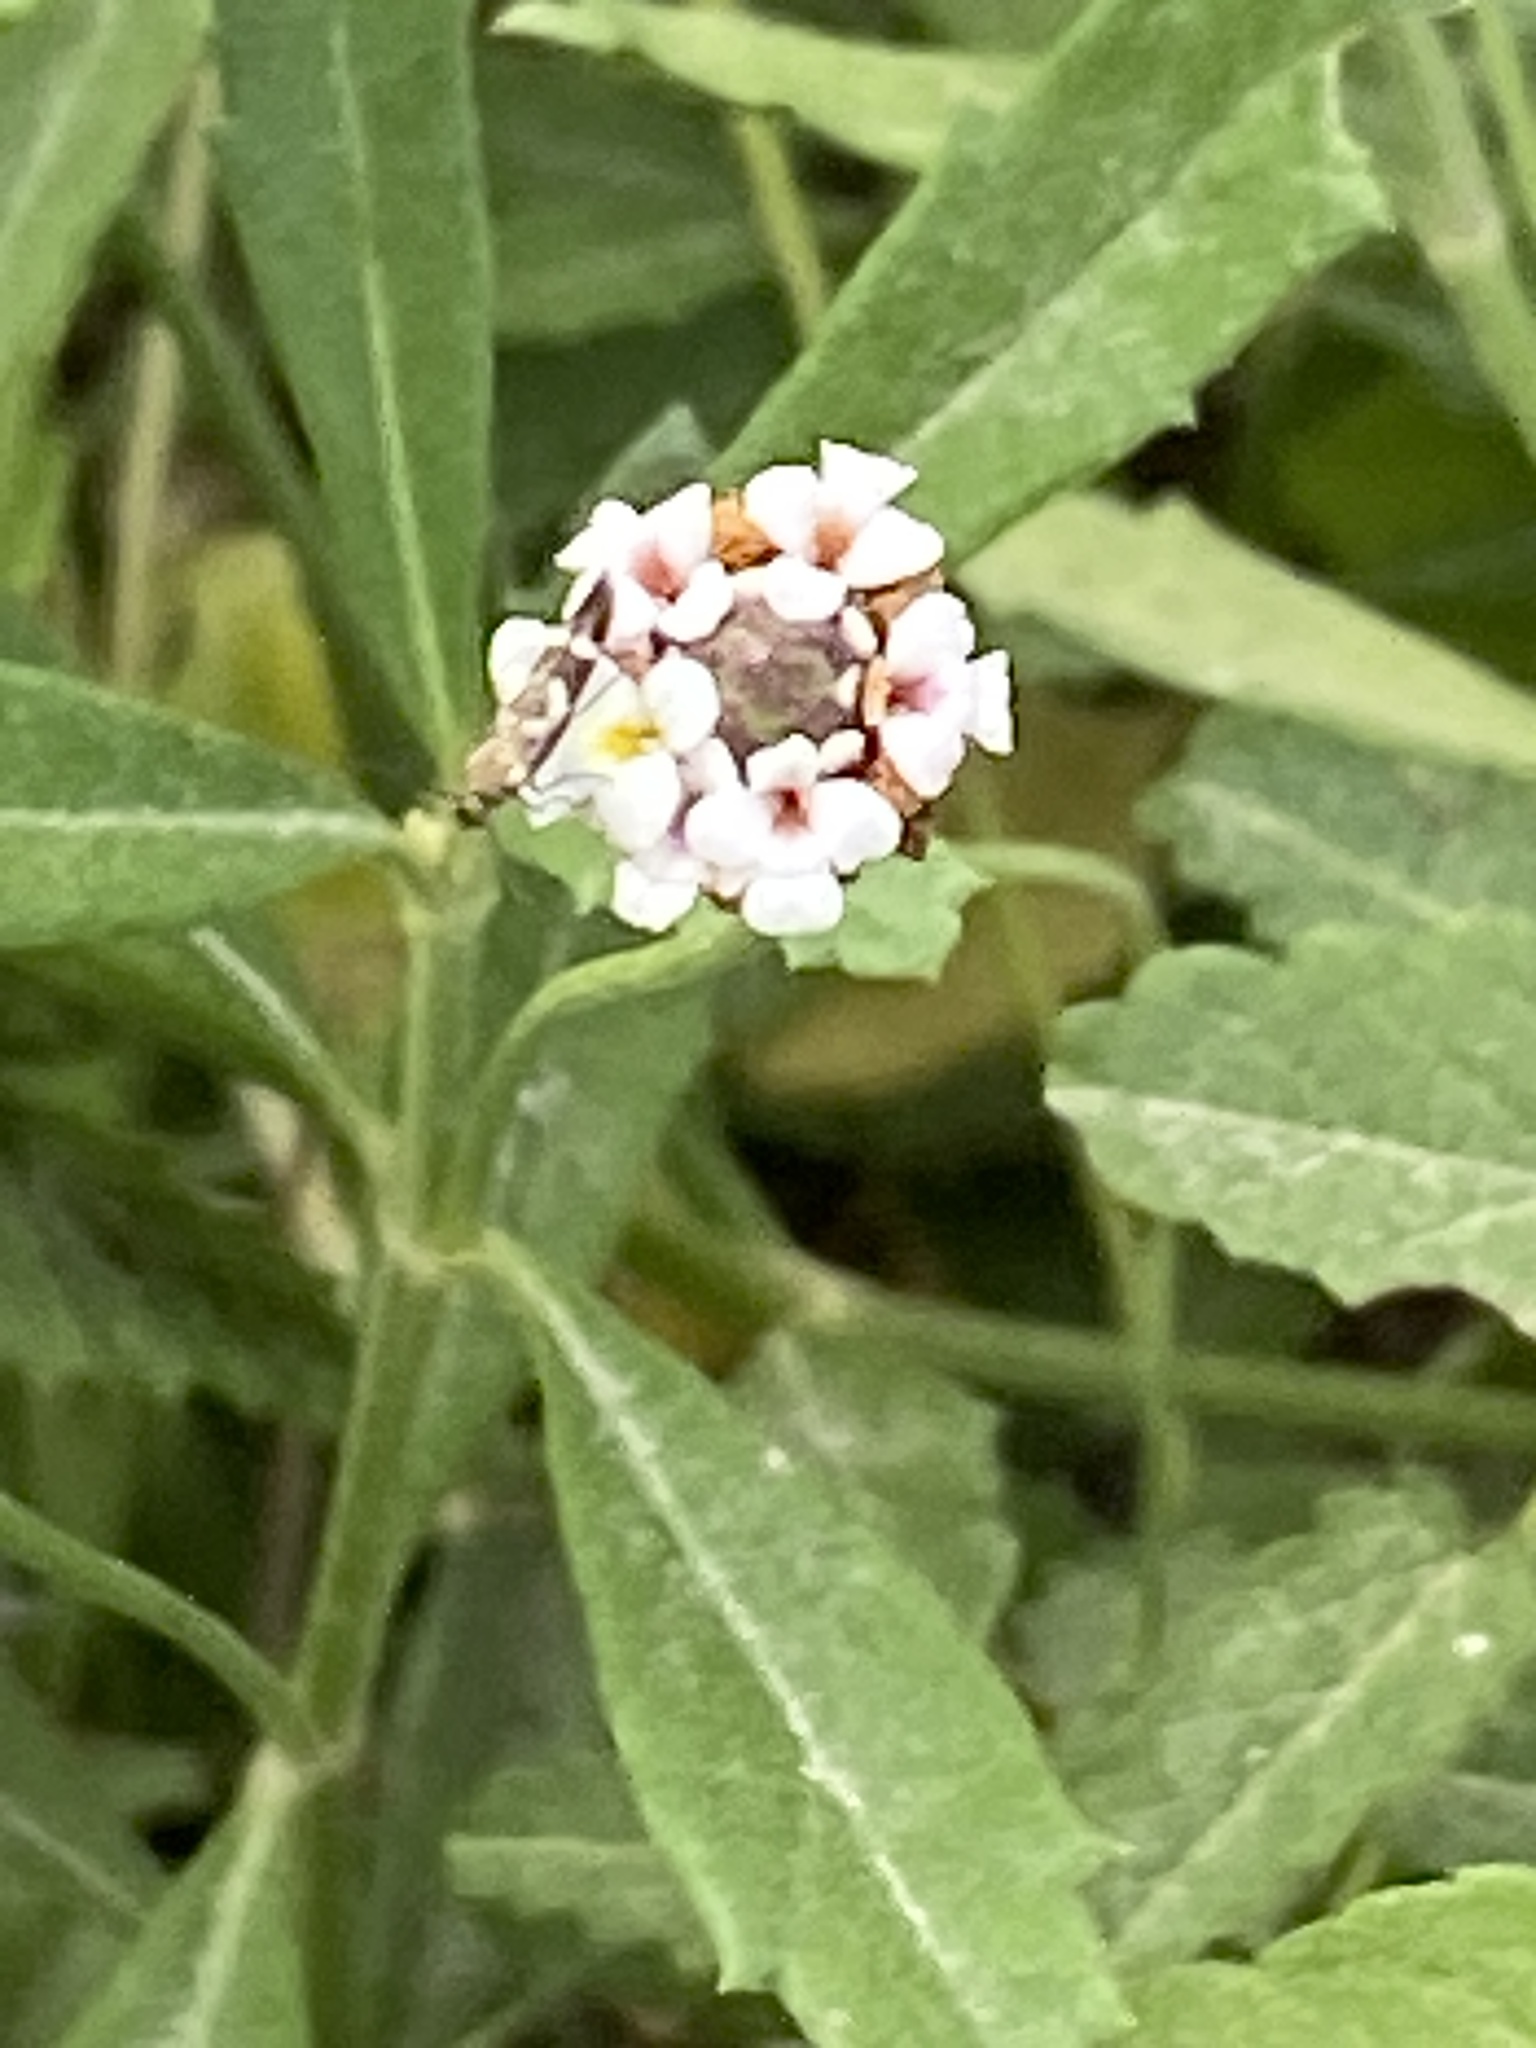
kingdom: Plantae
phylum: Tracheophyta
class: Magnoliopsida
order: Lamiales
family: Verbenaceae
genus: Phyla
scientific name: Phyla nodiflora
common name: Frogfruit
